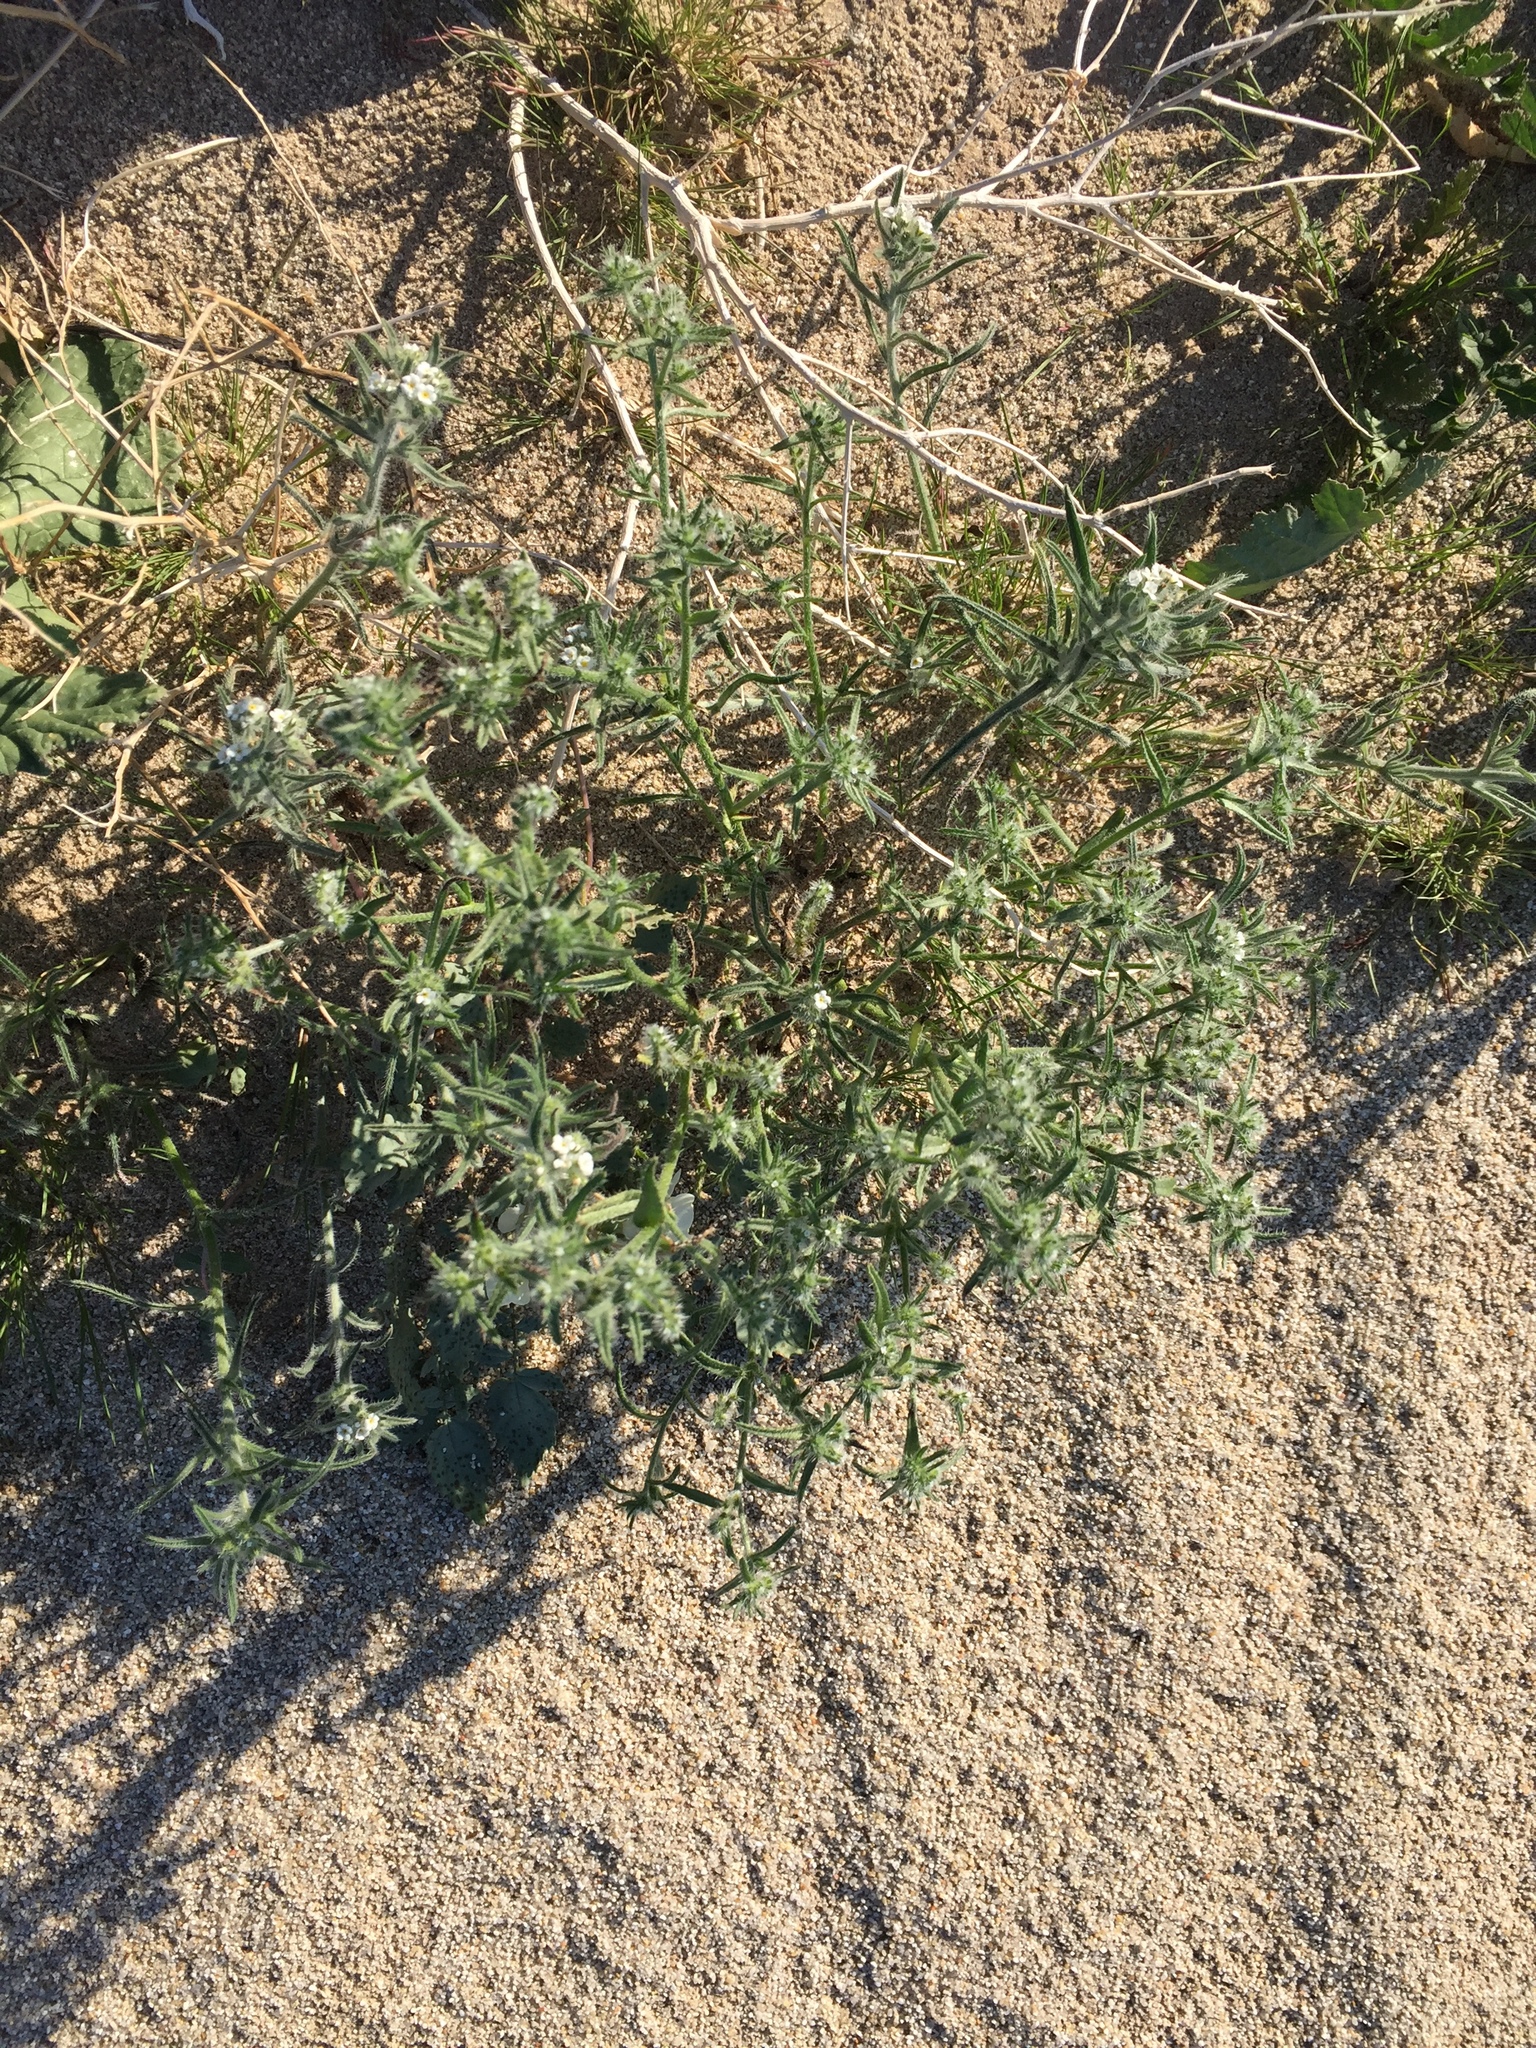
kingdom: Plantae
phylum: Tracheophyta
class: Magnoliopsida
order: Boraginales
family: Boraginaceae
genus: Cryptantha
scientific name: Cryptantha maritima
